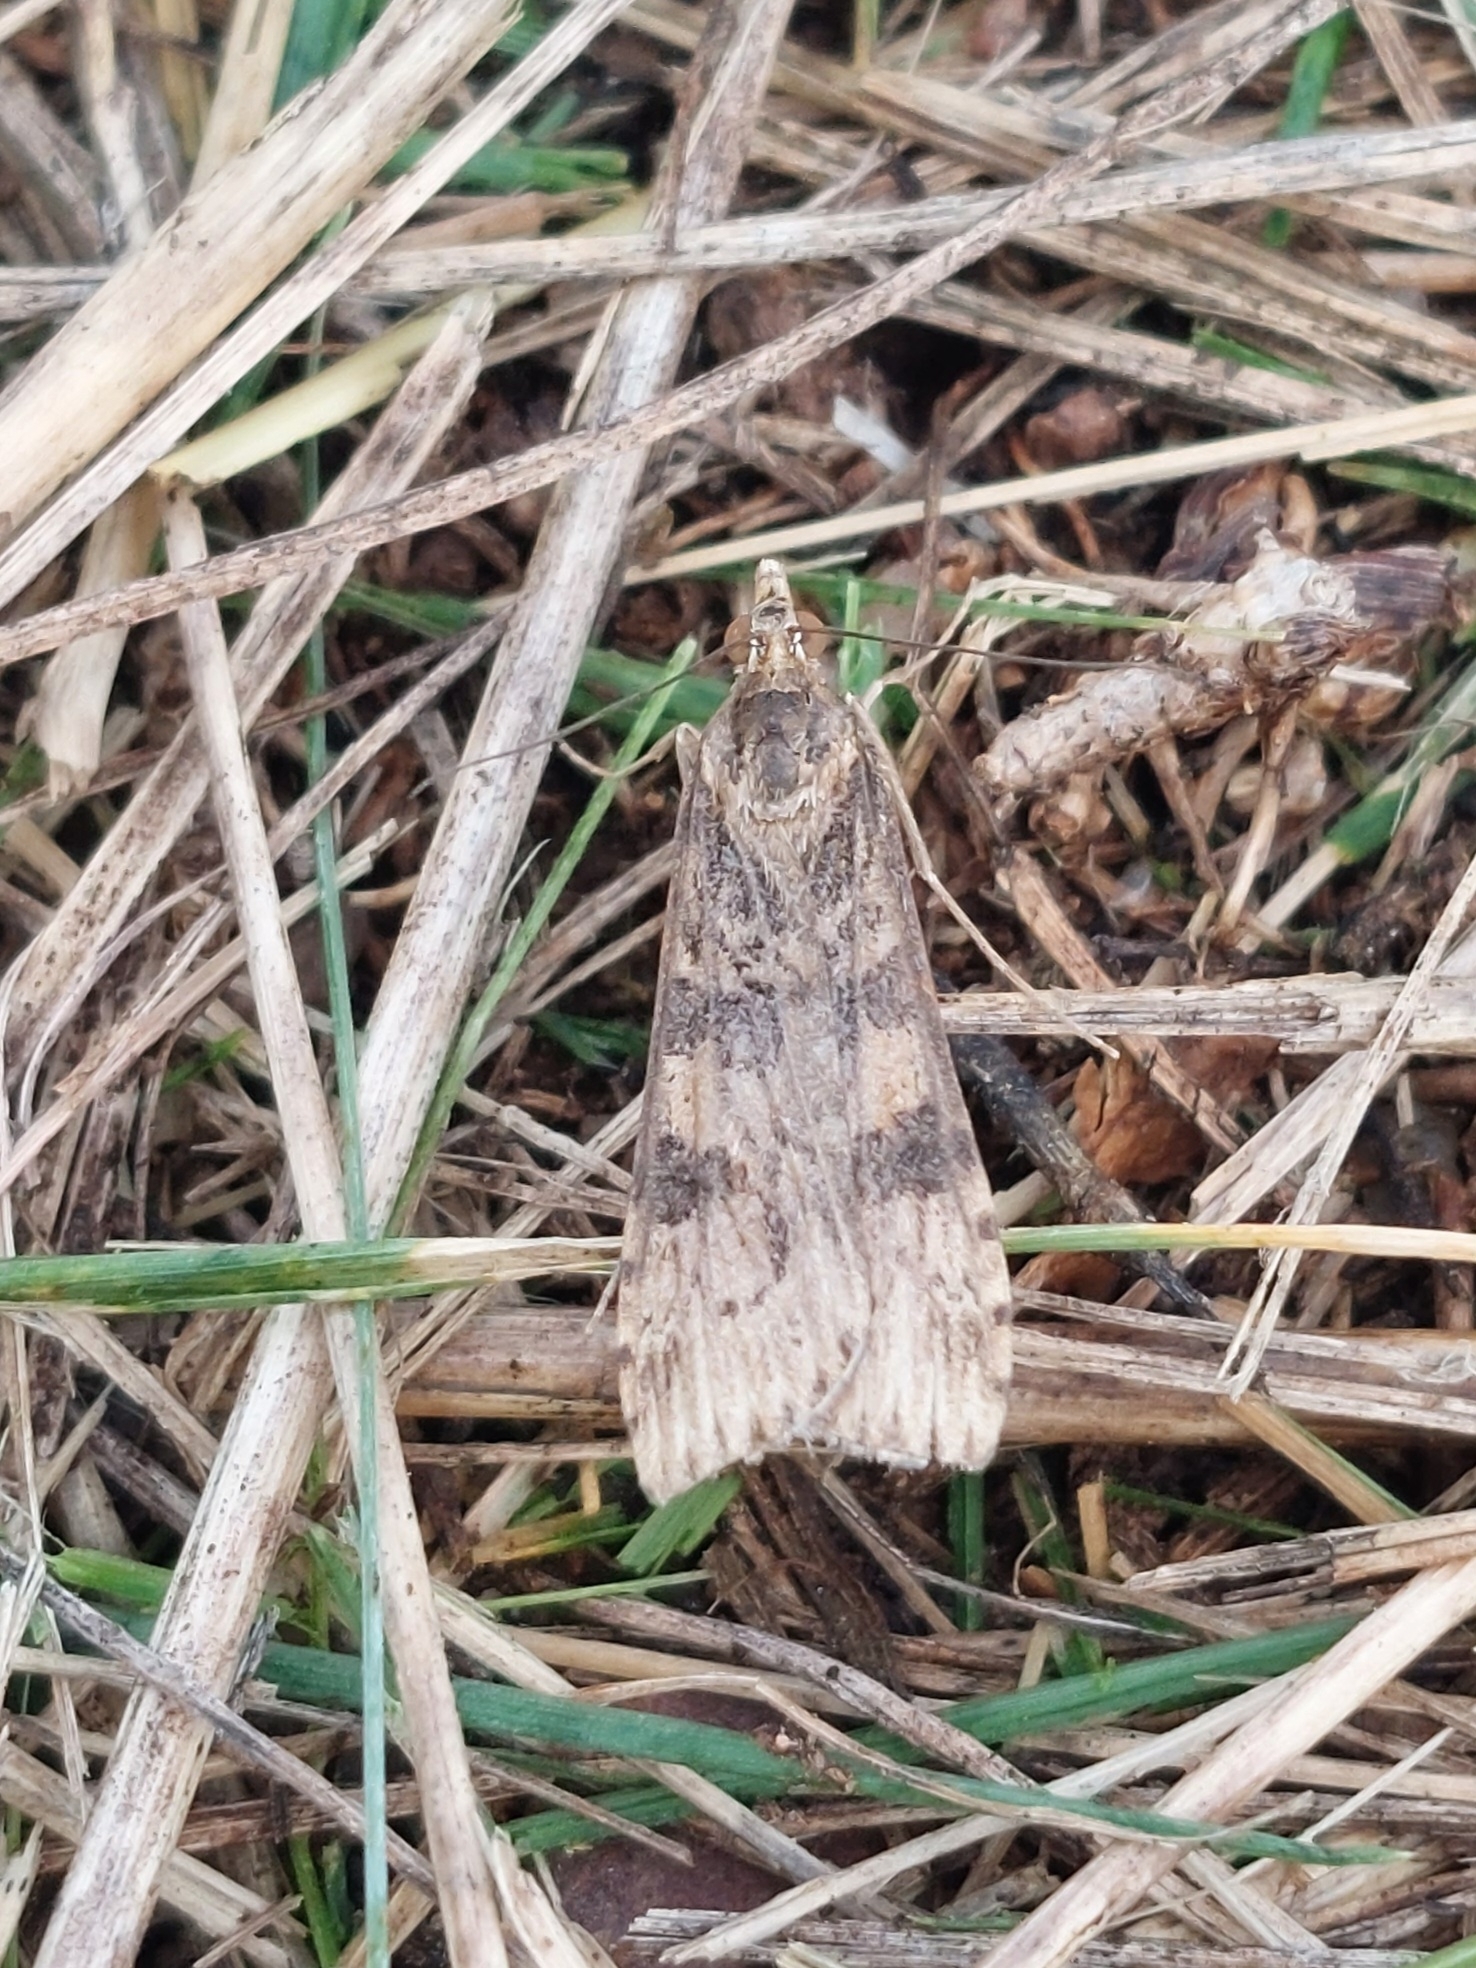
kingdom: Animalia
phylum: Arthropoda
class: Insecta
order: Lepidoptera
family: Crambidae
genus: Nomophila
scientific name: Nomophila nearctica
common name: American rush veneer
